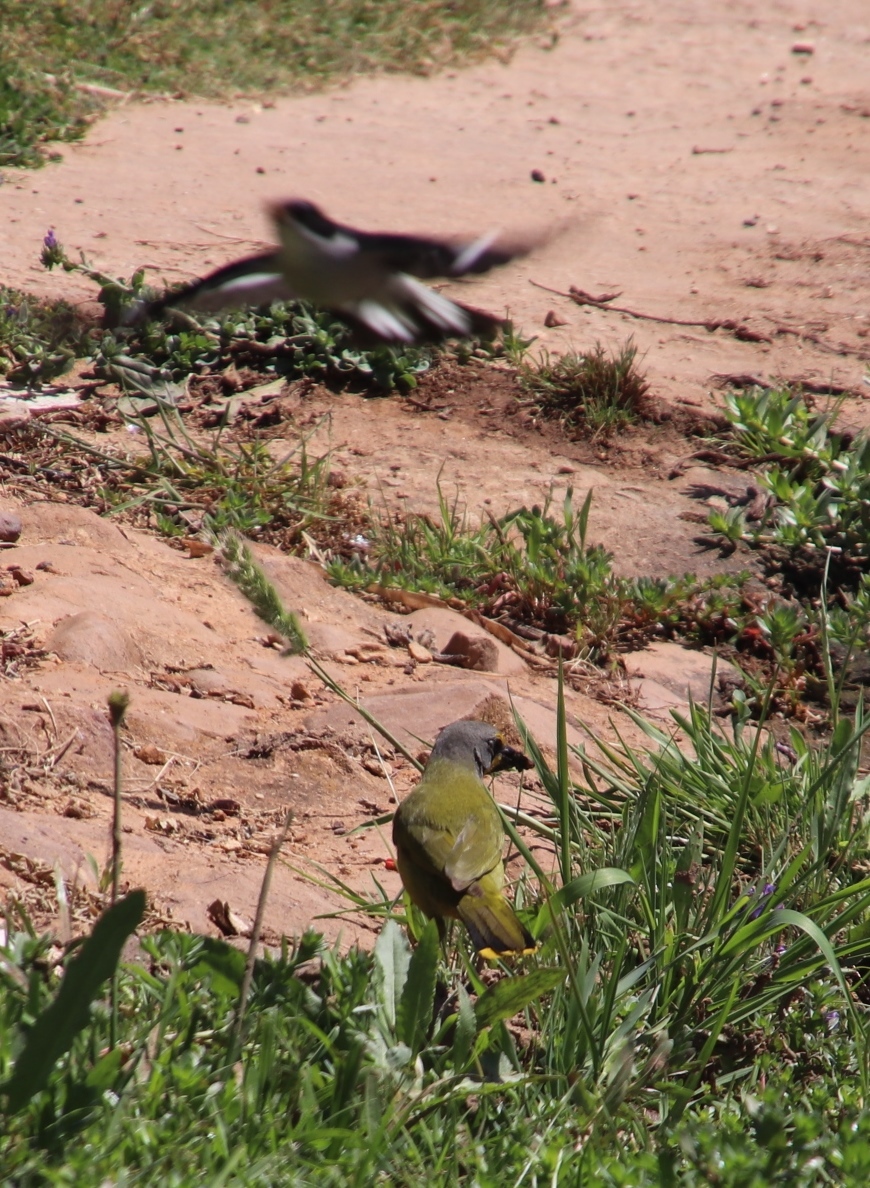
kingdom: Animalia
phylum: Chordata
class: Aves
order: Passeriformes
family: Malaconotidae
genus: Telophorus
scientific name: Telophorus zeylonus
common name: Bokmakierie
